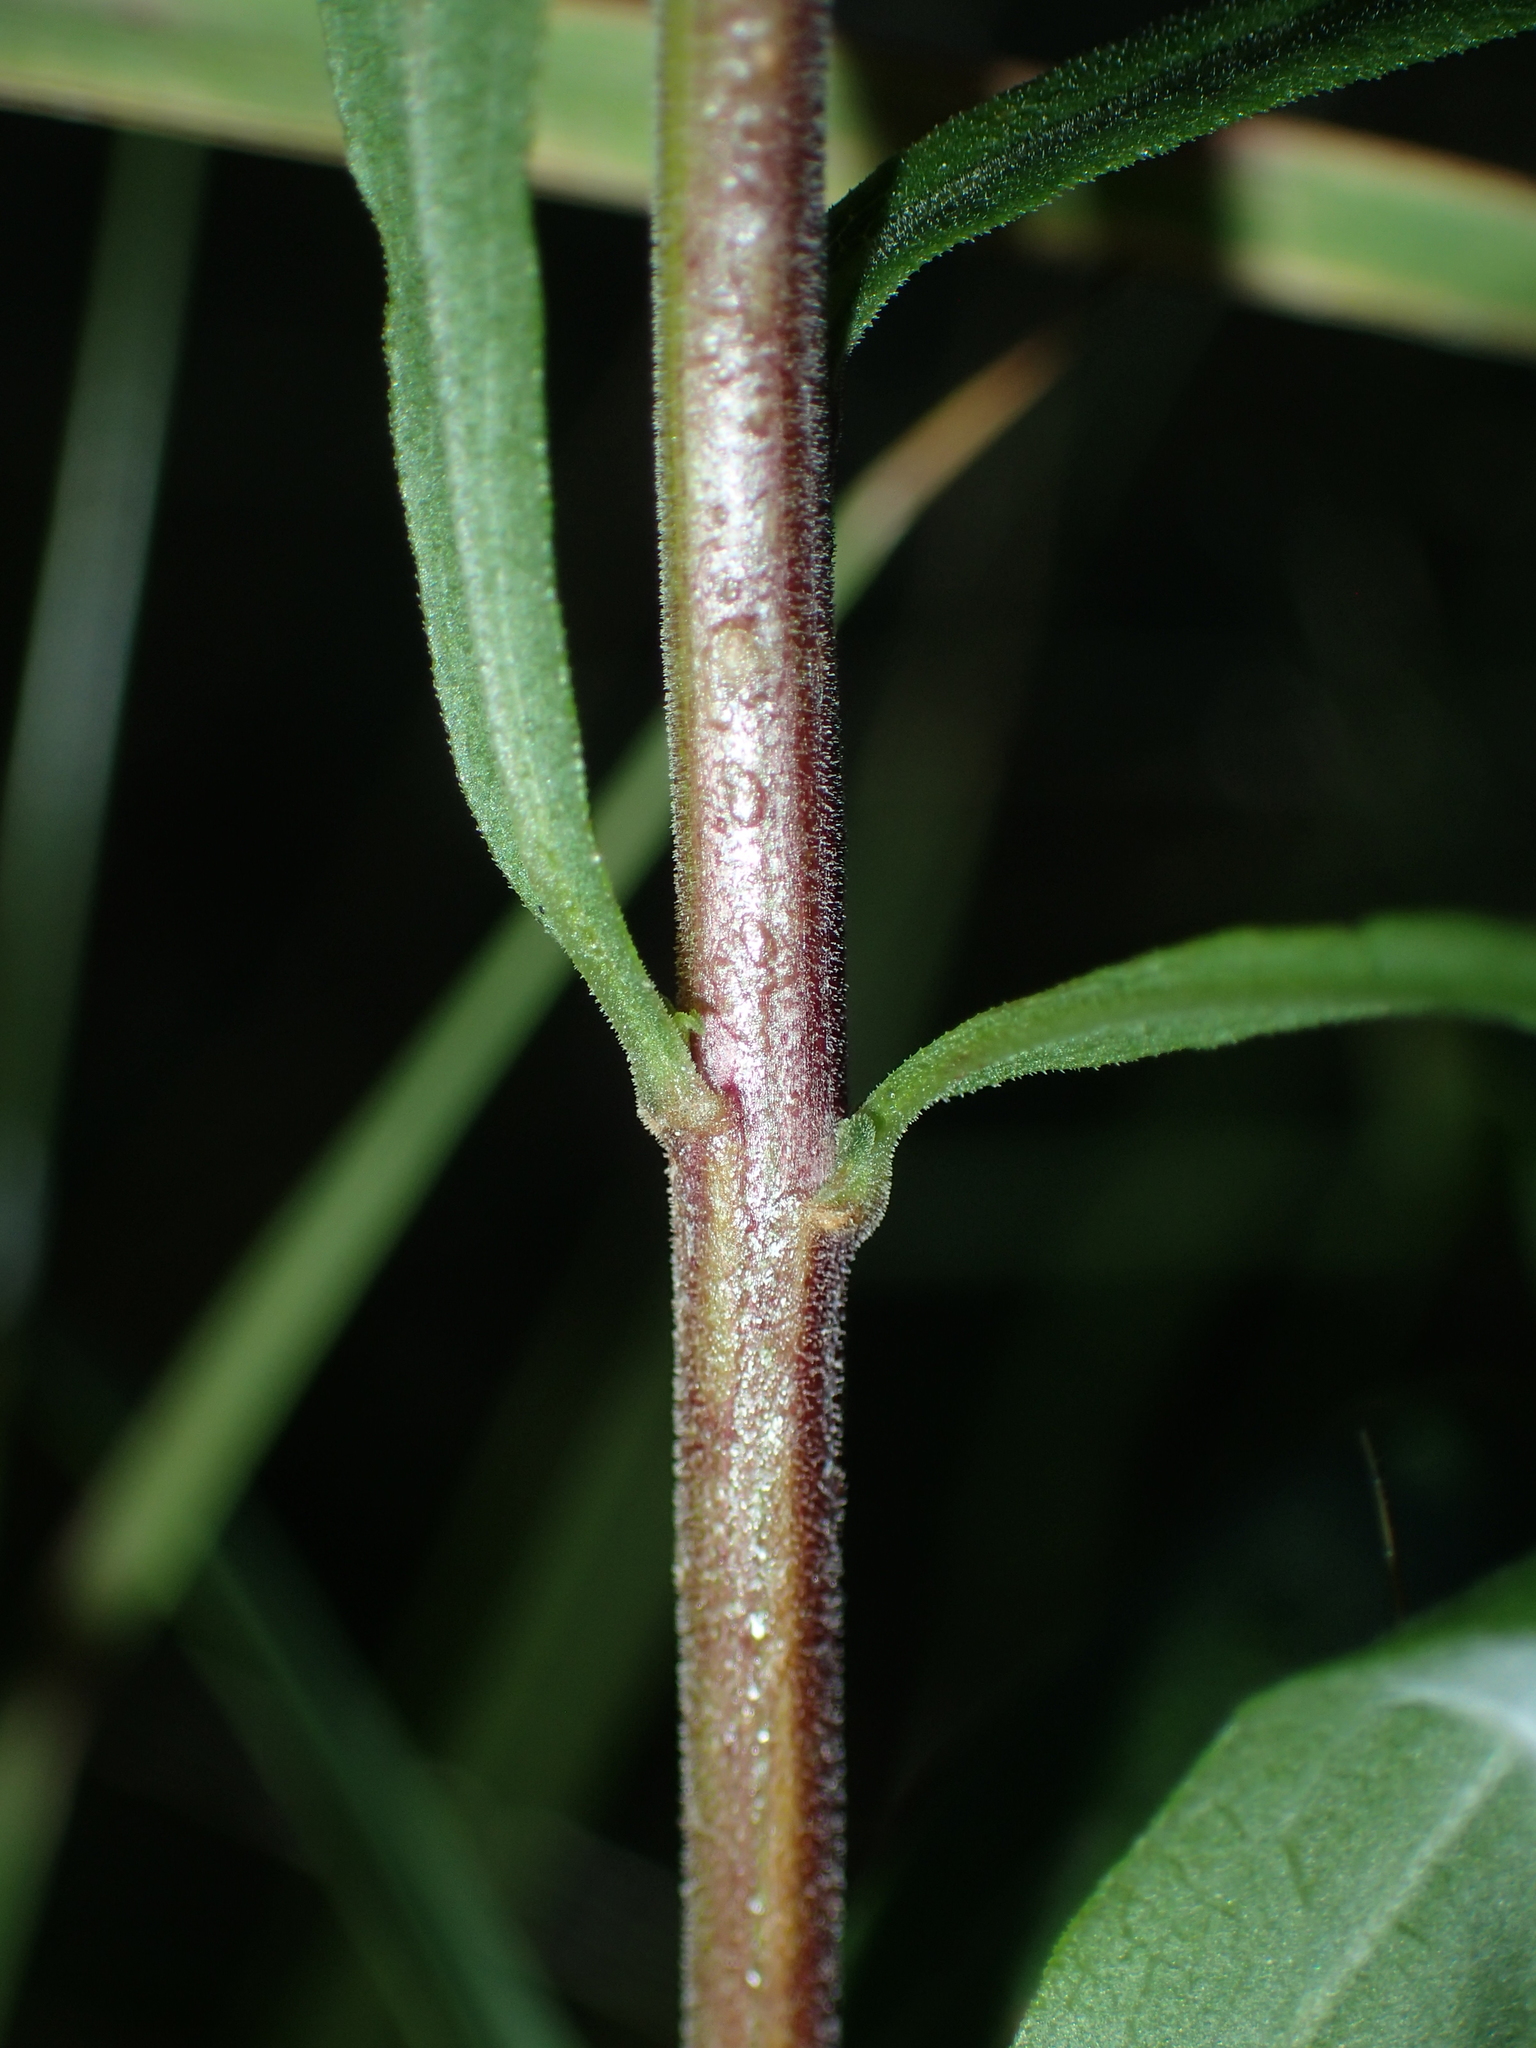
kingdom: Plantae
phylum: Tracheophyta
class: Magnoliopsida
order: Asterales
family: Asteraceae
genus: Solidago
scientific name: Solidago puberula
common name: Downy goldenrod
